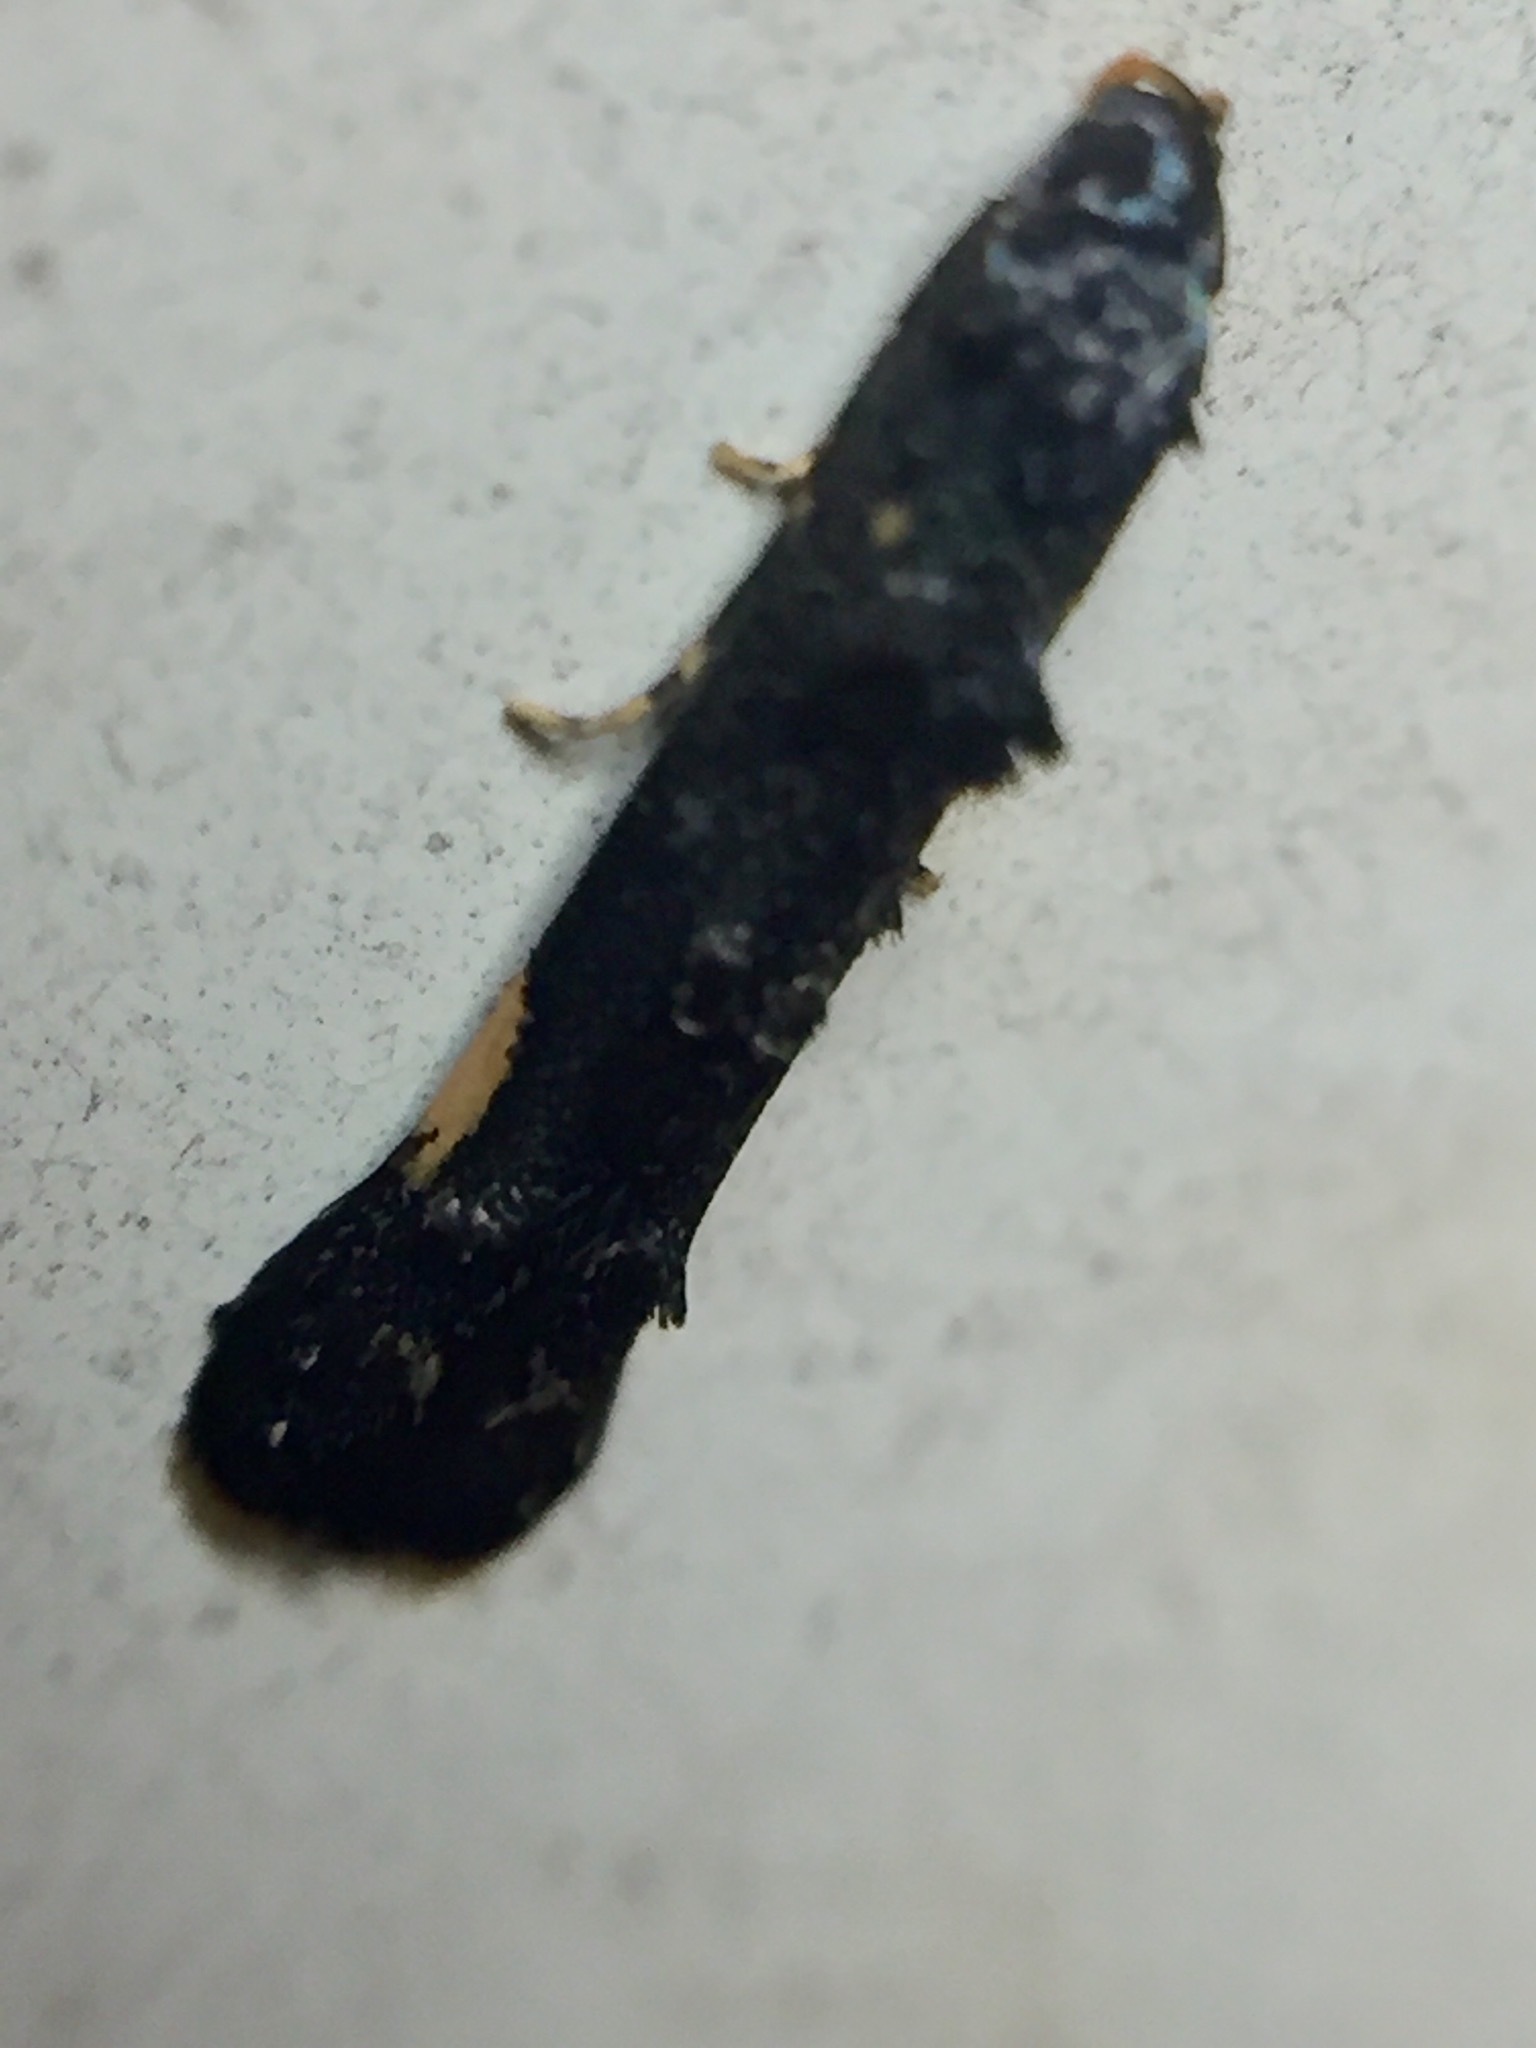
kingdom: Animalia
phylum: Arthropoda
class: Insecta
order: Lepidoptera
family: Elachistidae
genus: Microcolona
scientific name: Microcolona
